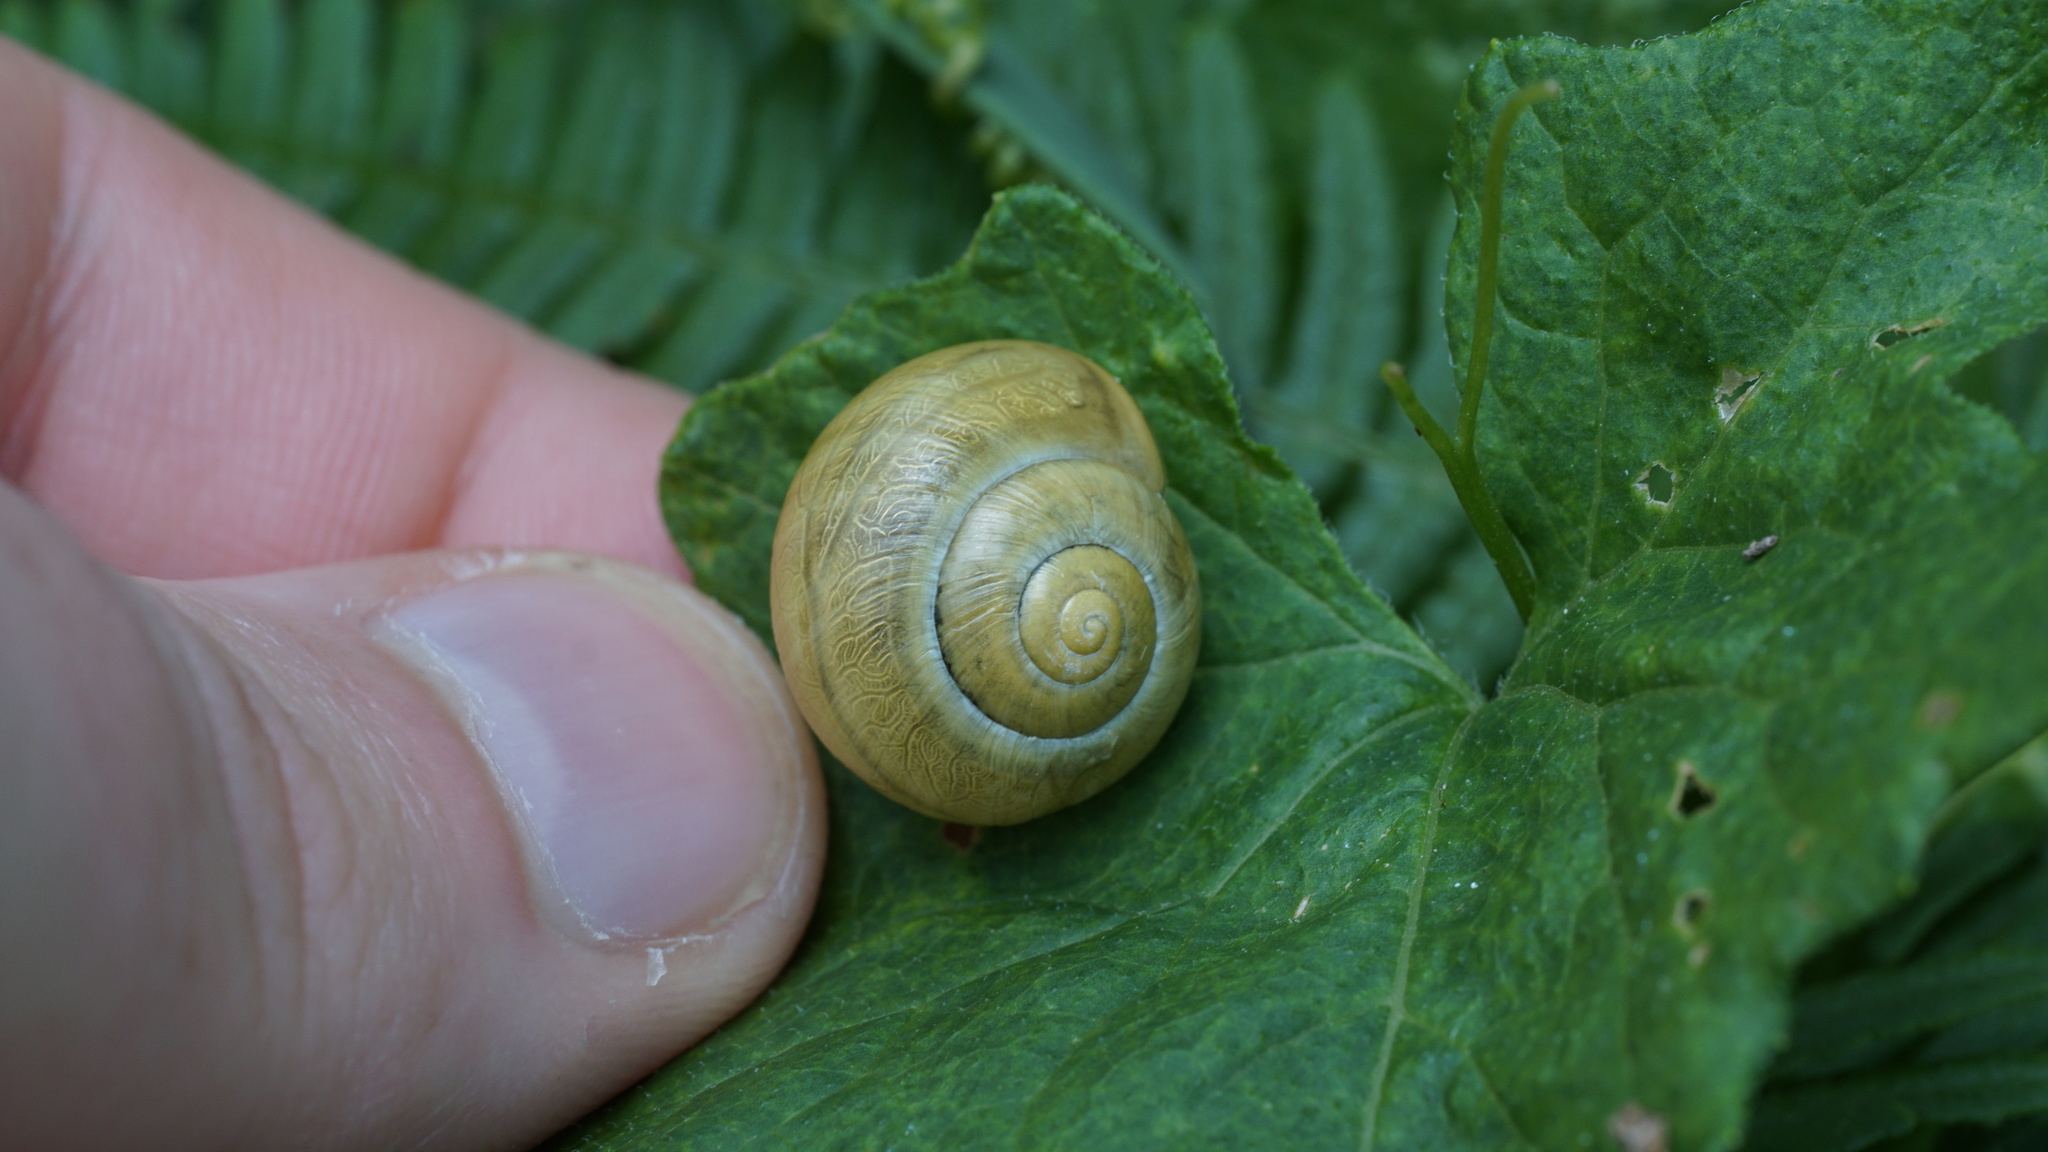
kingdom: Animalia
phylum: Mollusca
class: Gastropoda
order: Stylommatophora
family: Helicidae
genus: Cepaea
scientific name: Cepaea
